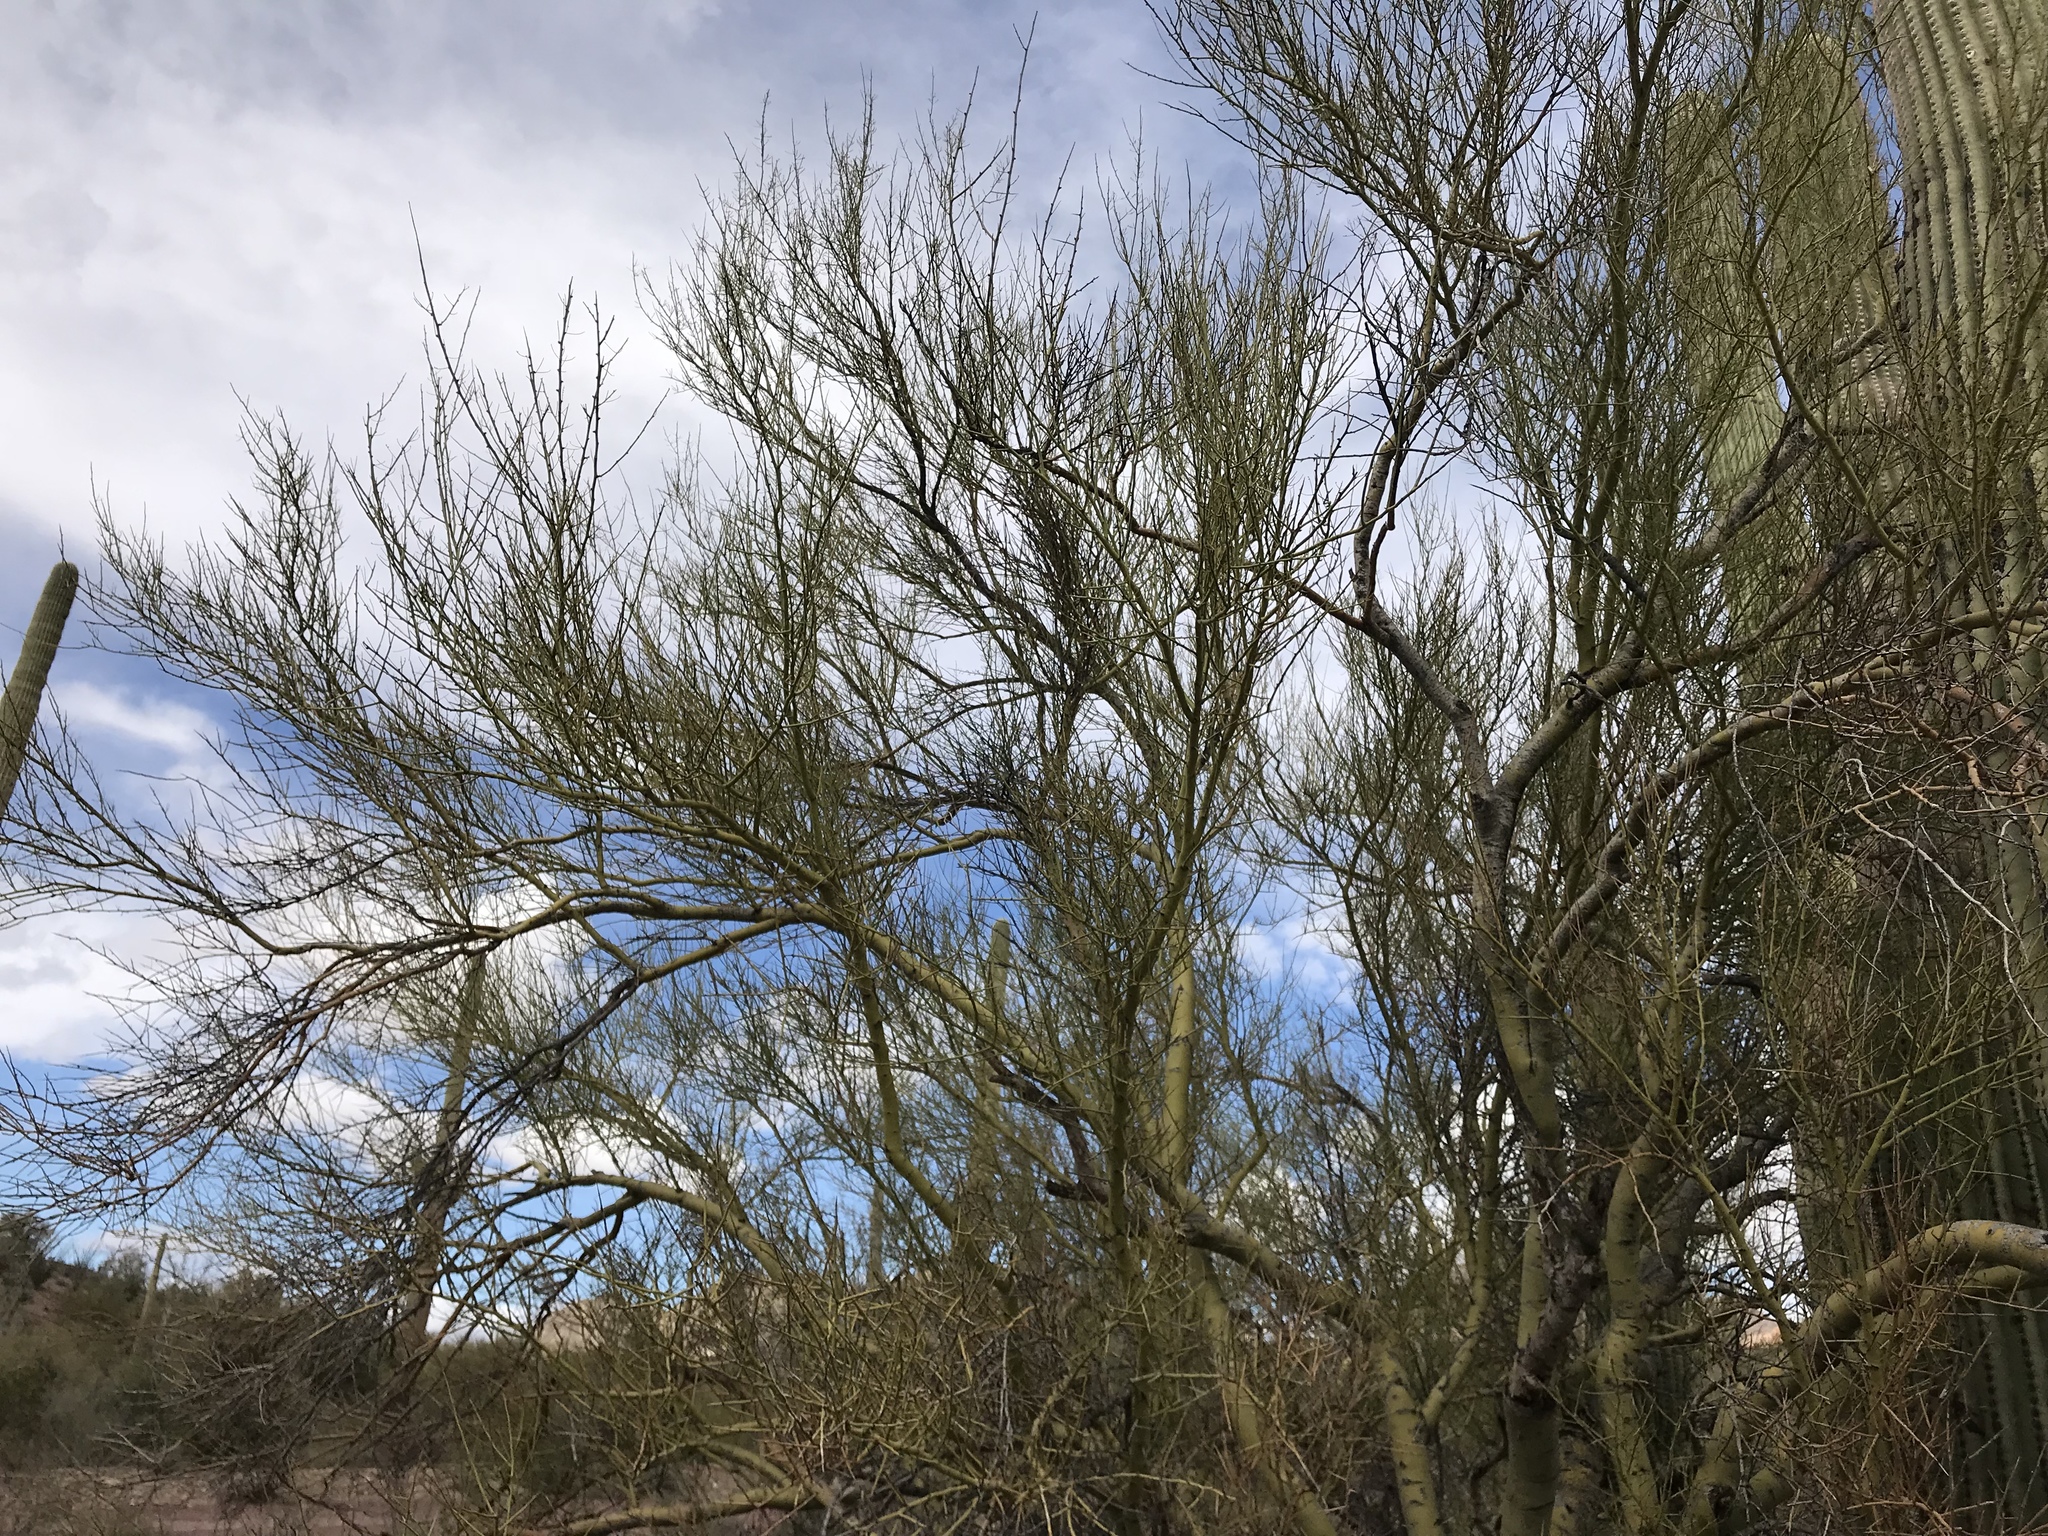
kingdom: Plantae
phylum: Tracheophyta
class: Magnoliopsida
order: Fabales
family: Fabaceae
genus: Parkinsonia
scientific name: Parkinsonia microphylla
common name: Yellow paloverde
